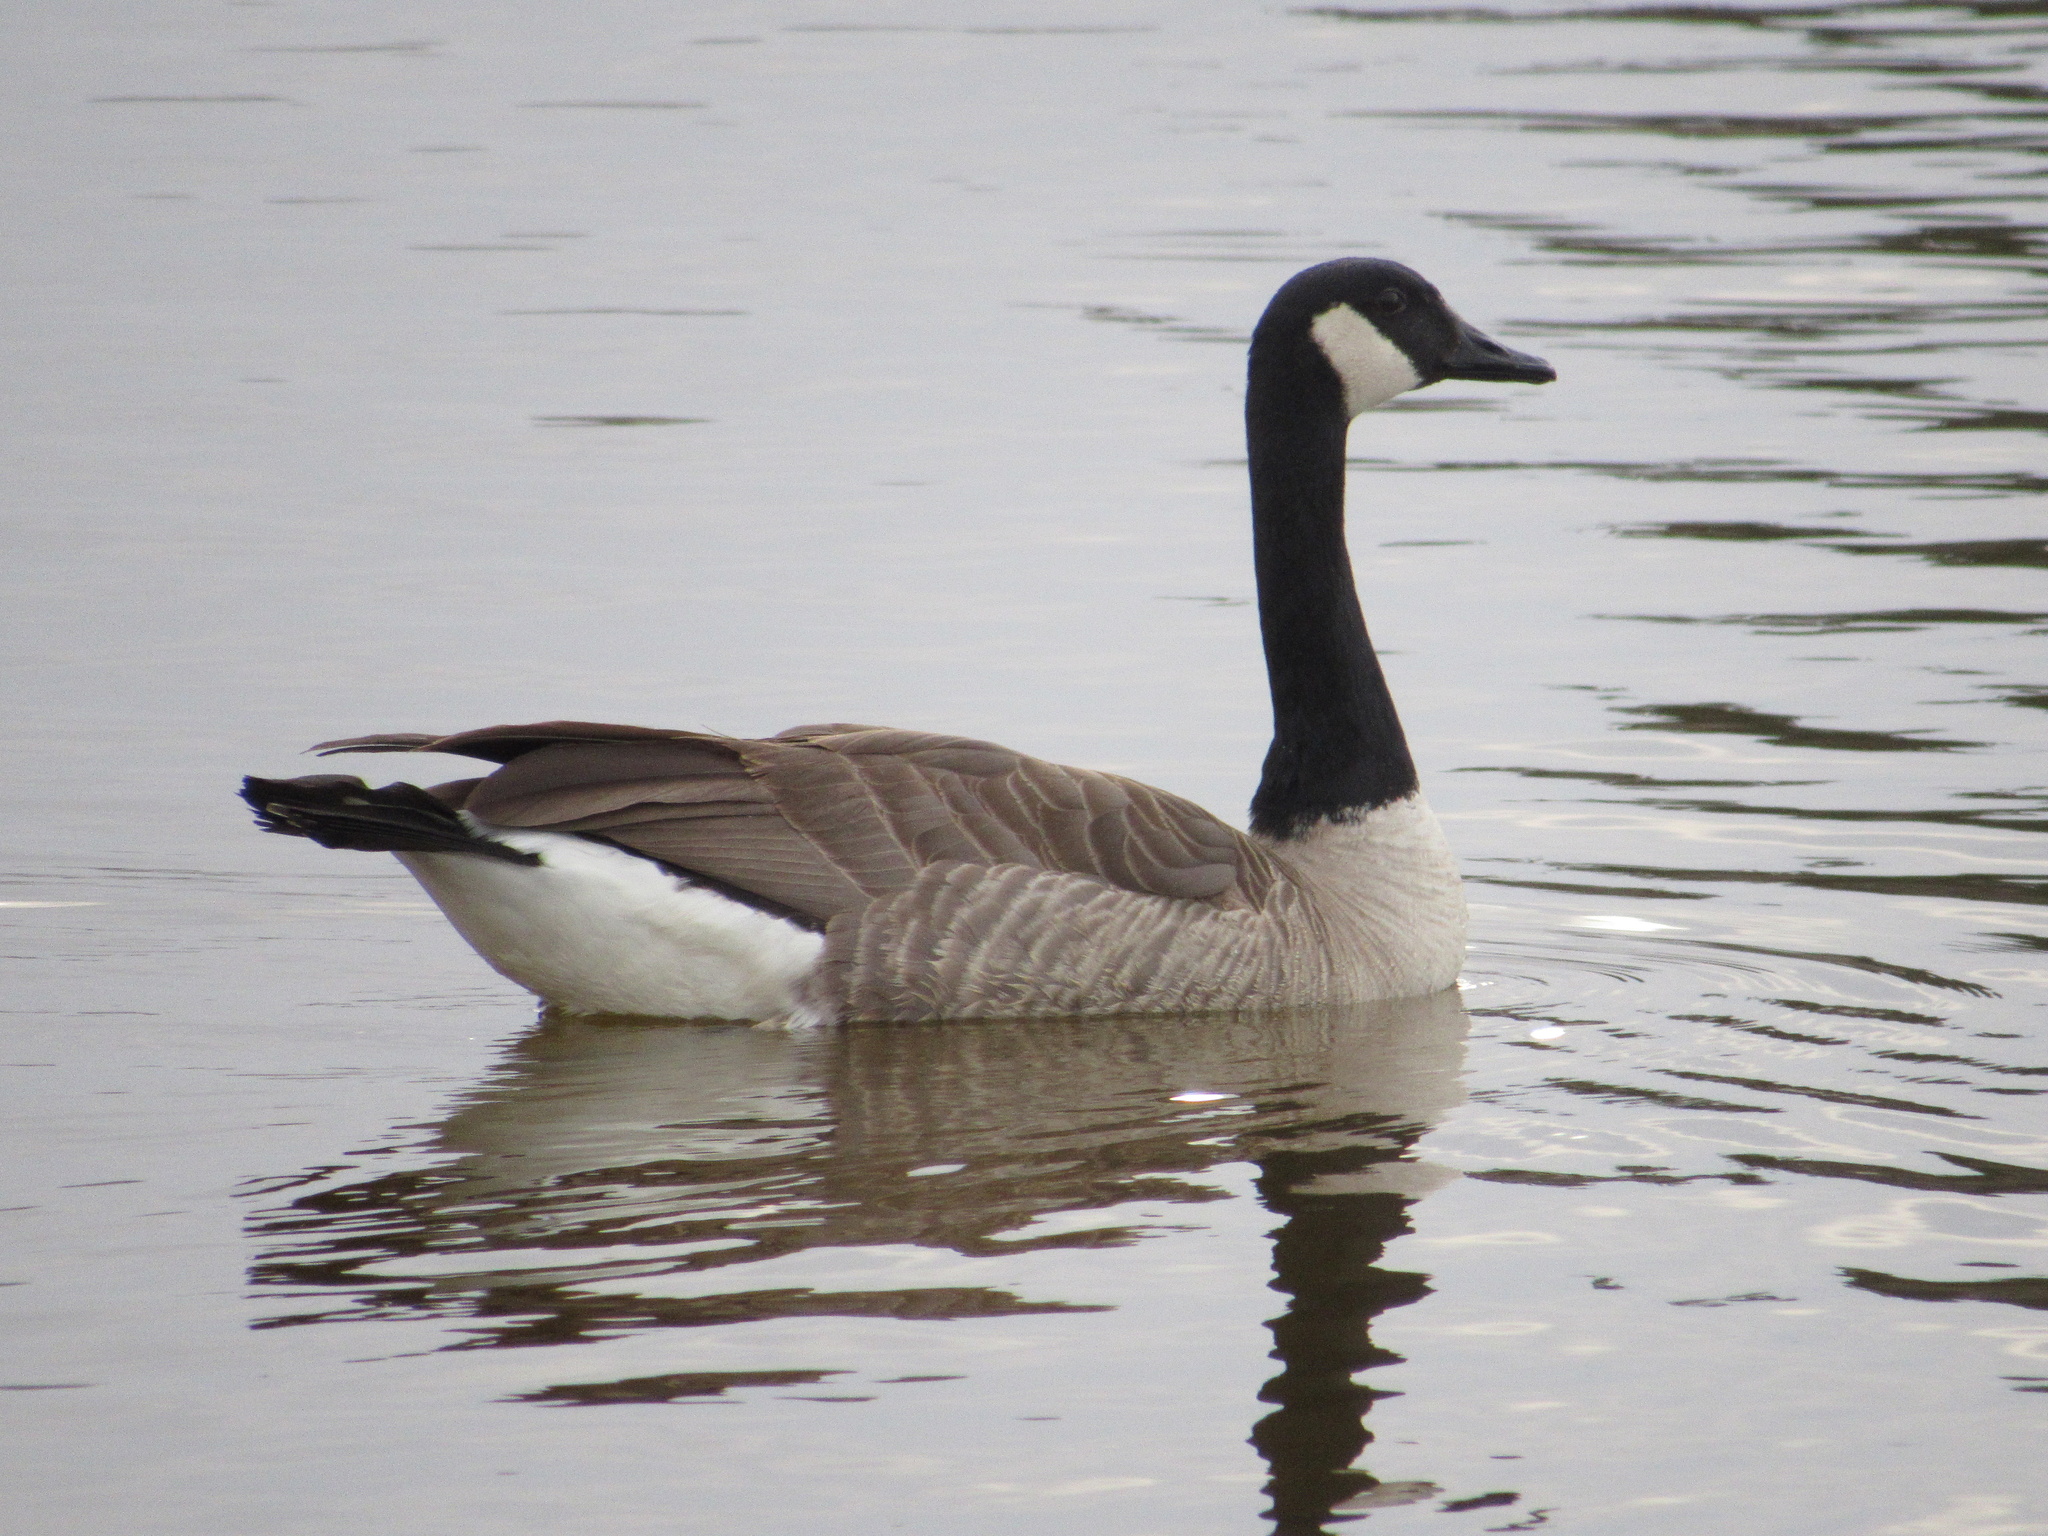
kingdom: Animalia
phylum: Chordata
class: Aves
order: Anseriformes
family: Anatidae
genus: Branta
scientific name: Branta canadensis
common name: Canada goose
